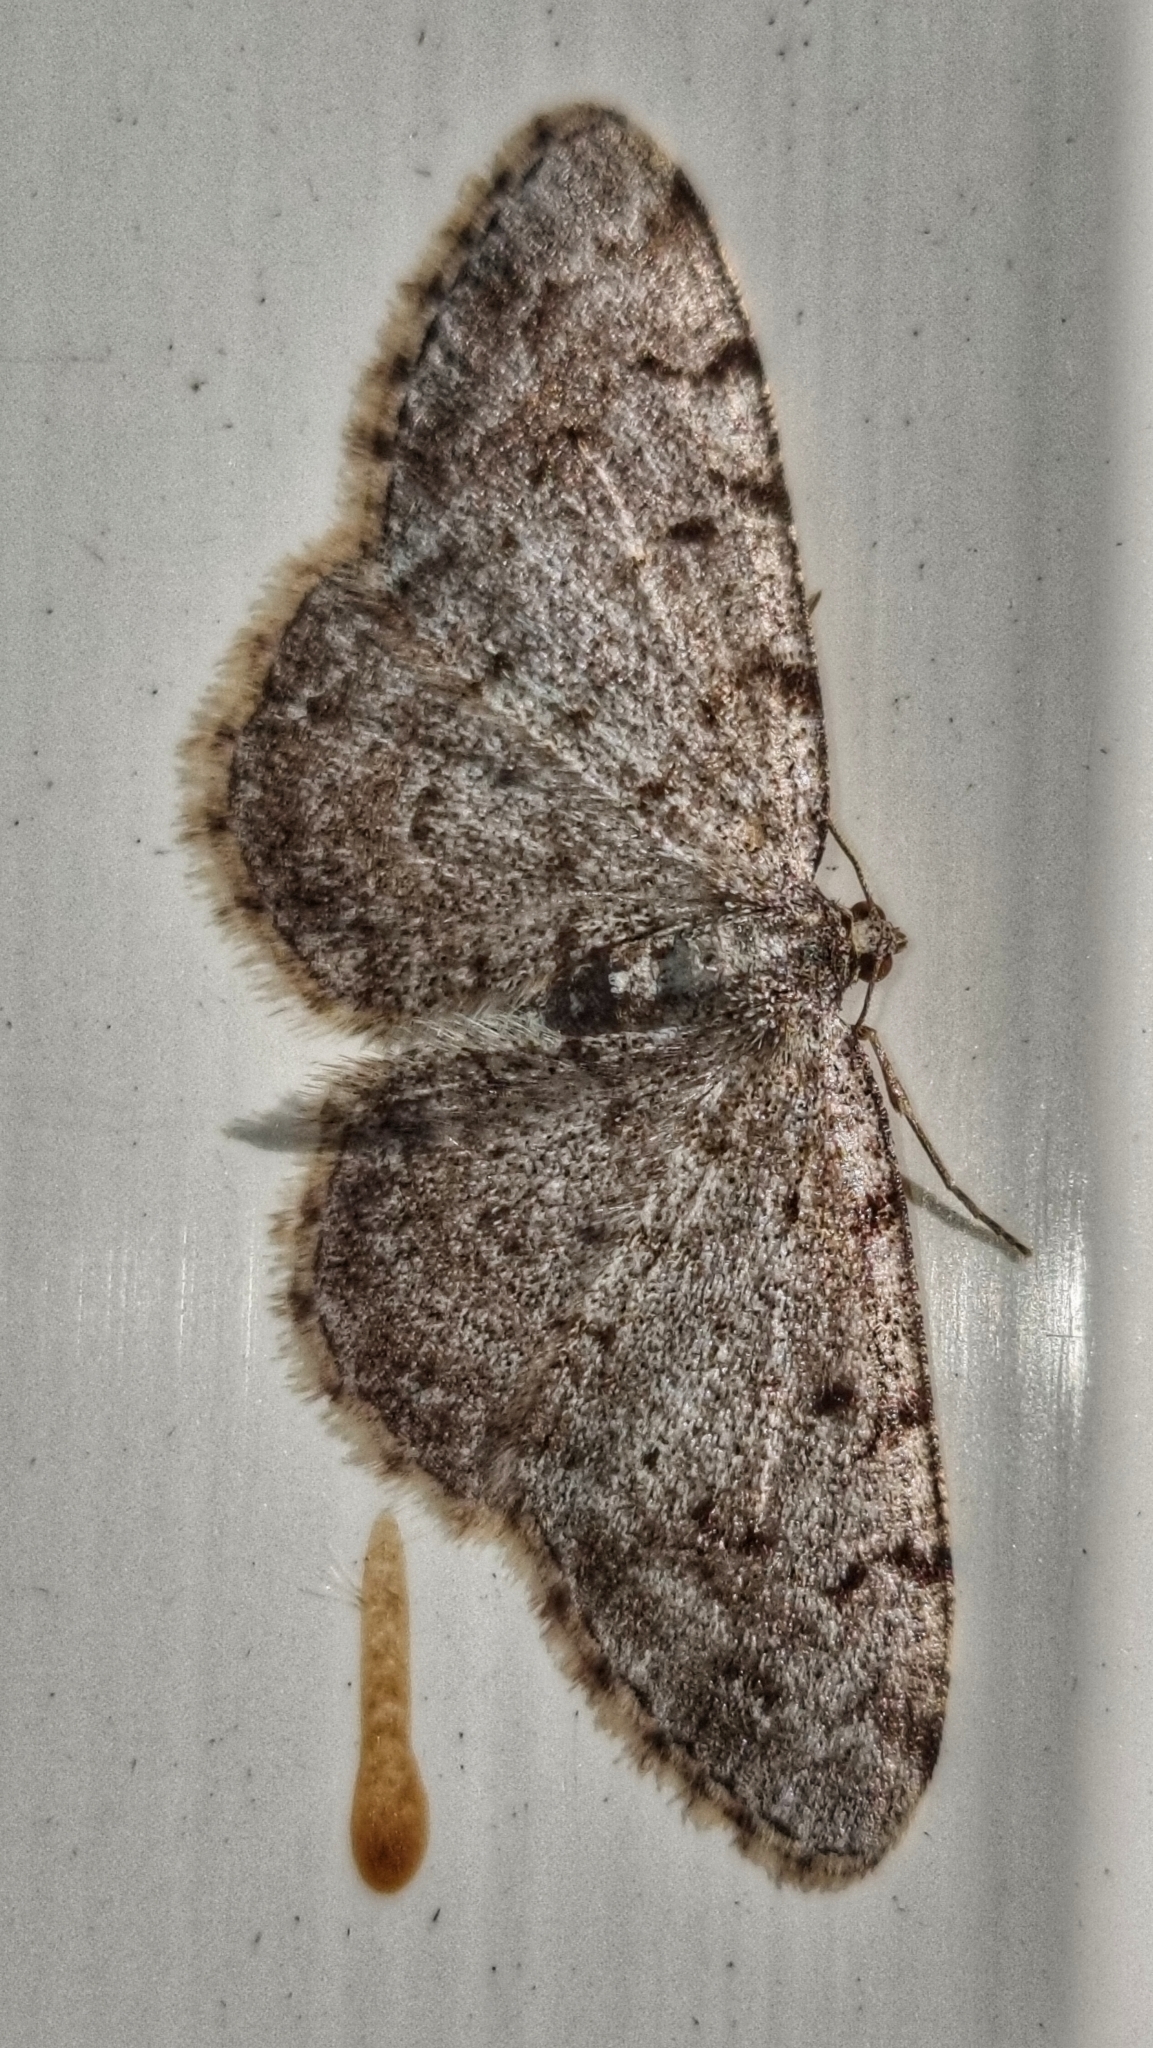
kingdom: Animalia
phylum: Arthropoda
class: Insecta
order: Lepidoptera
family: Geometridae
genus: Aethalura
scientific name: Aethalura punctulata
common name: Grey birch
